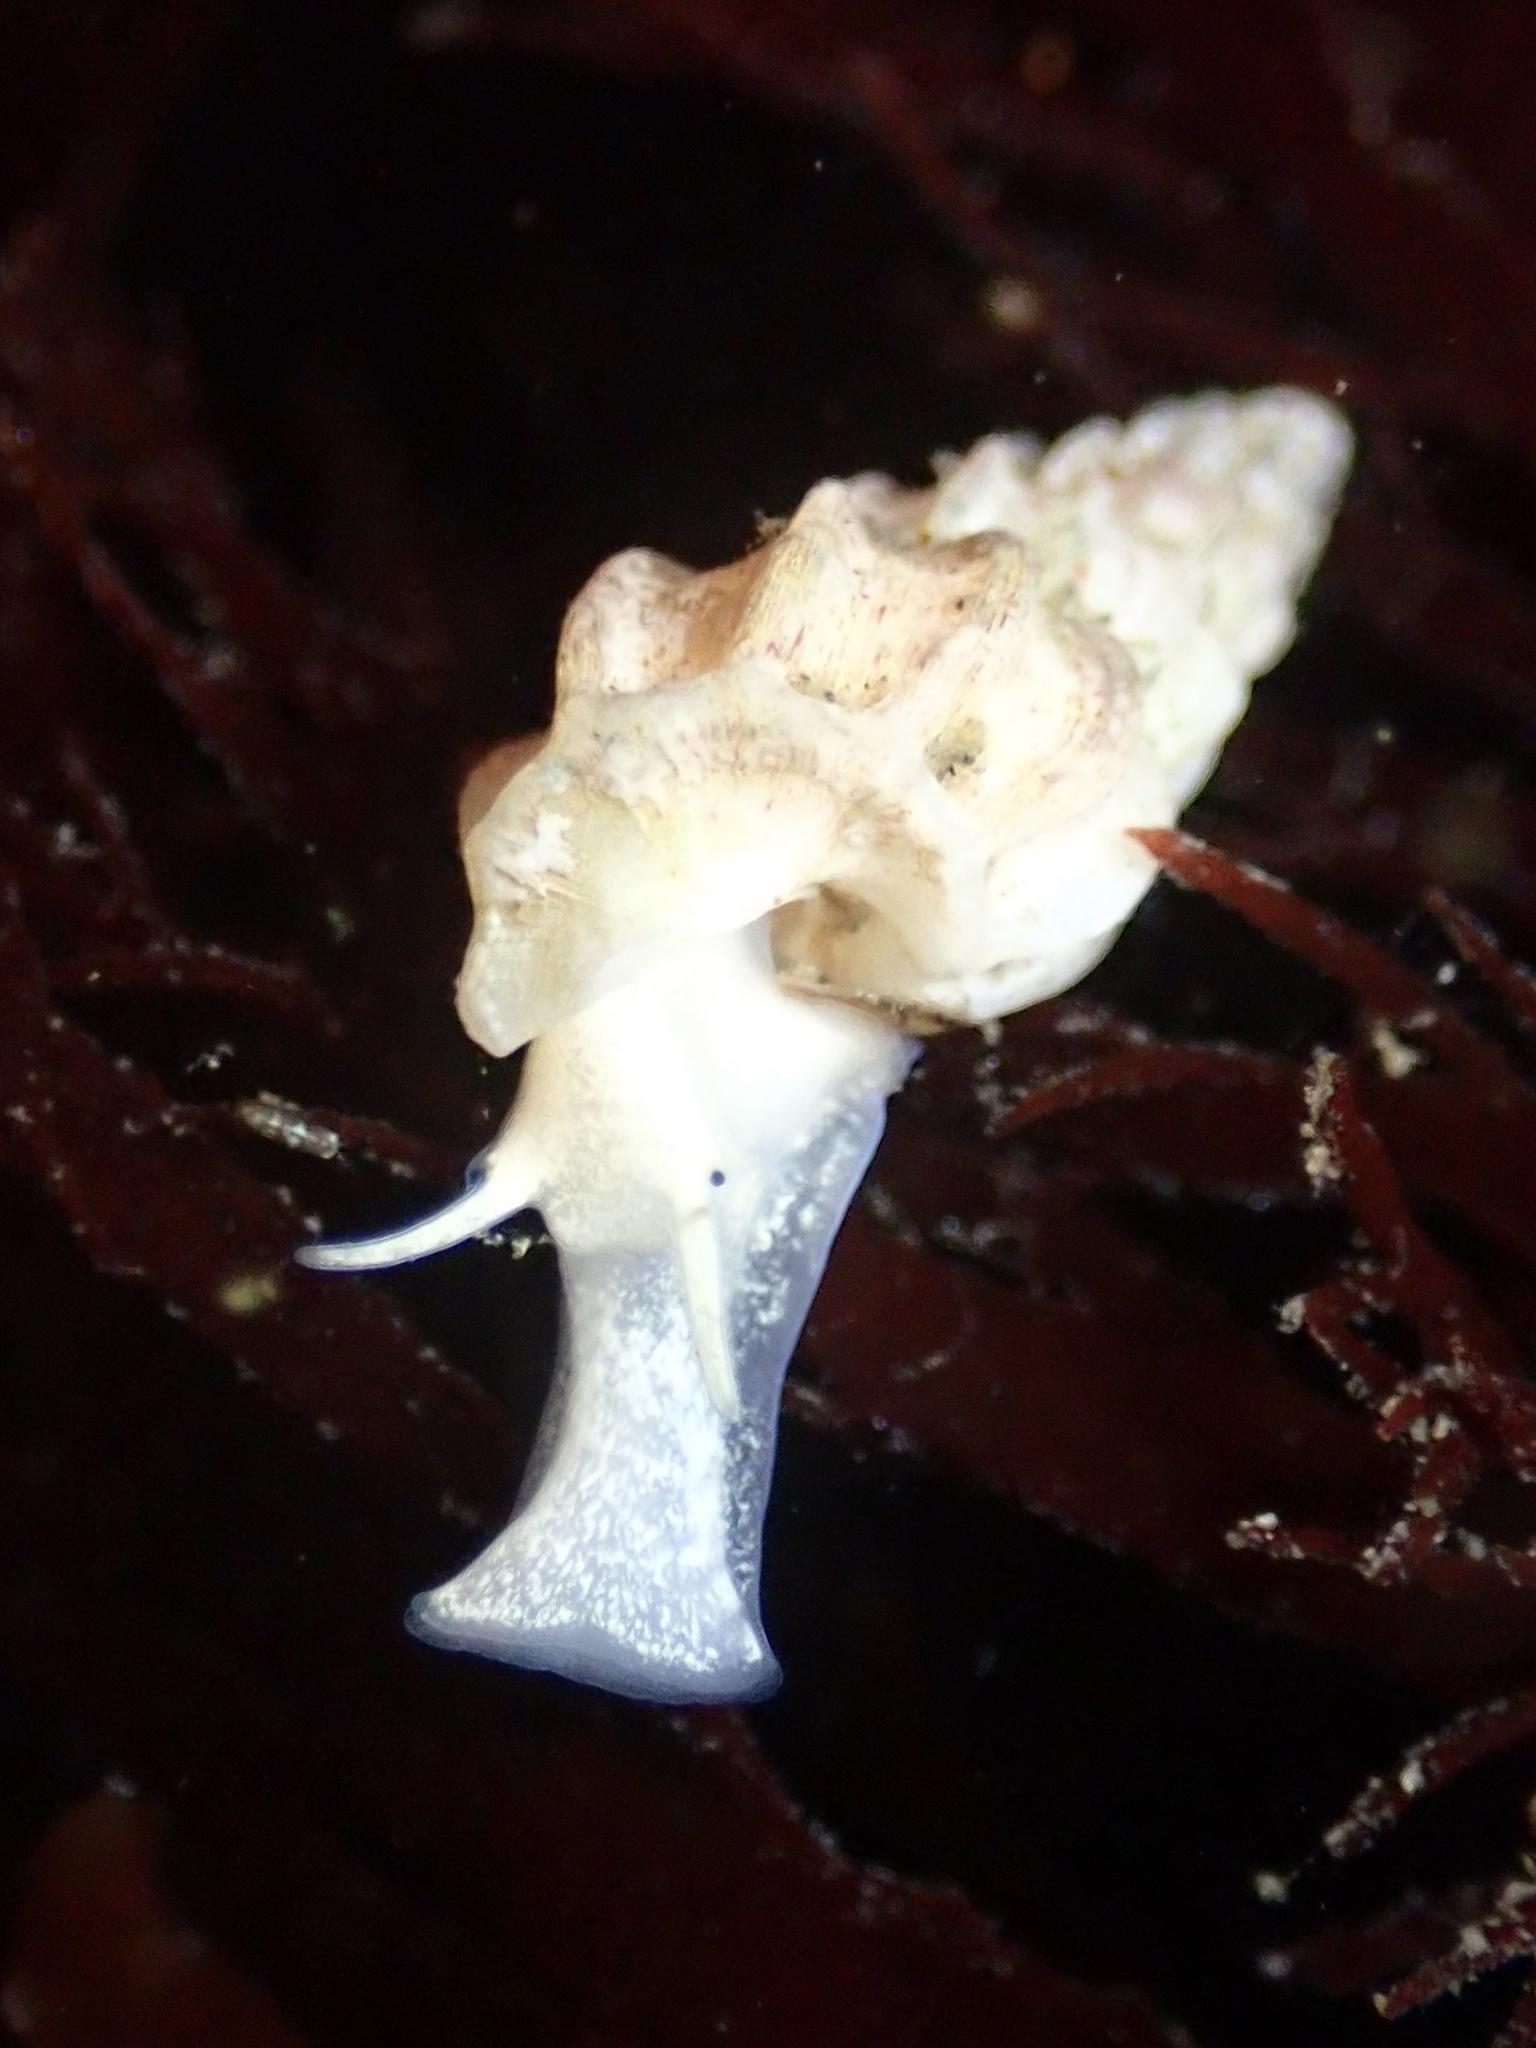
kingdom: Animalia
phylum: Mollusca
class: Gastropoda
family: Epitoniidae
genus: Opalia
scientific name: Opalia wroblewskyi
